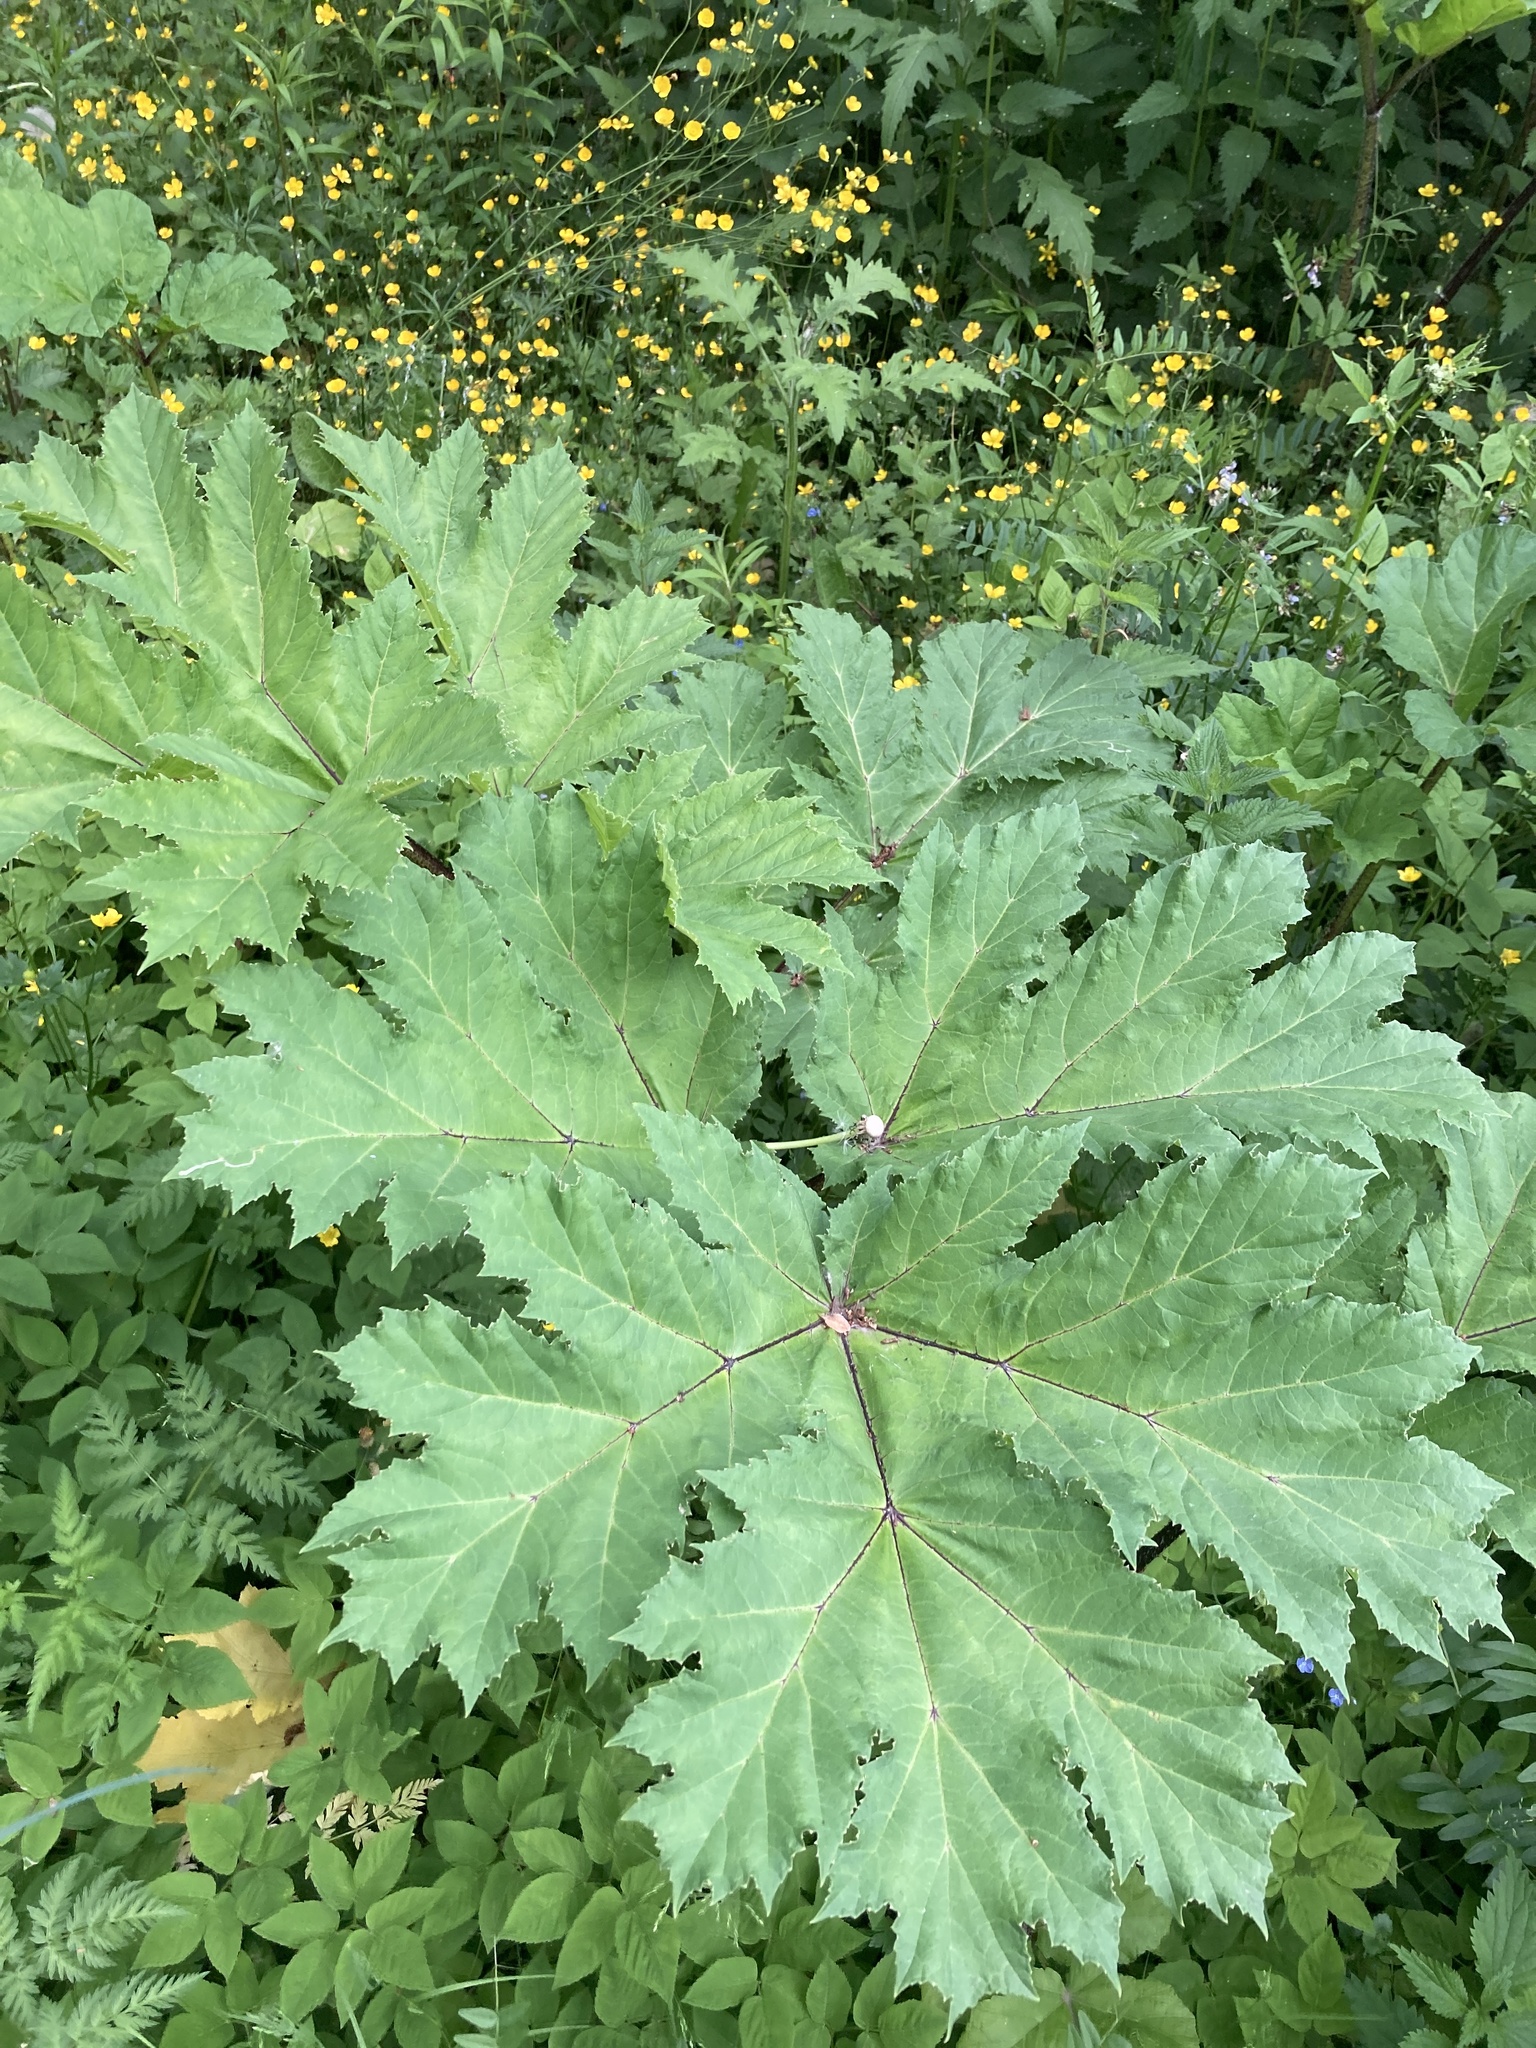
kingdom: Plantae
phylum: Tracheophyta
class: Magnoliopsida
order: Apiales
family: Apiaceae
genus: Heracleum
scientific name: Heracleum sosnowskyi
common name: Sosnowsky's hogweed
